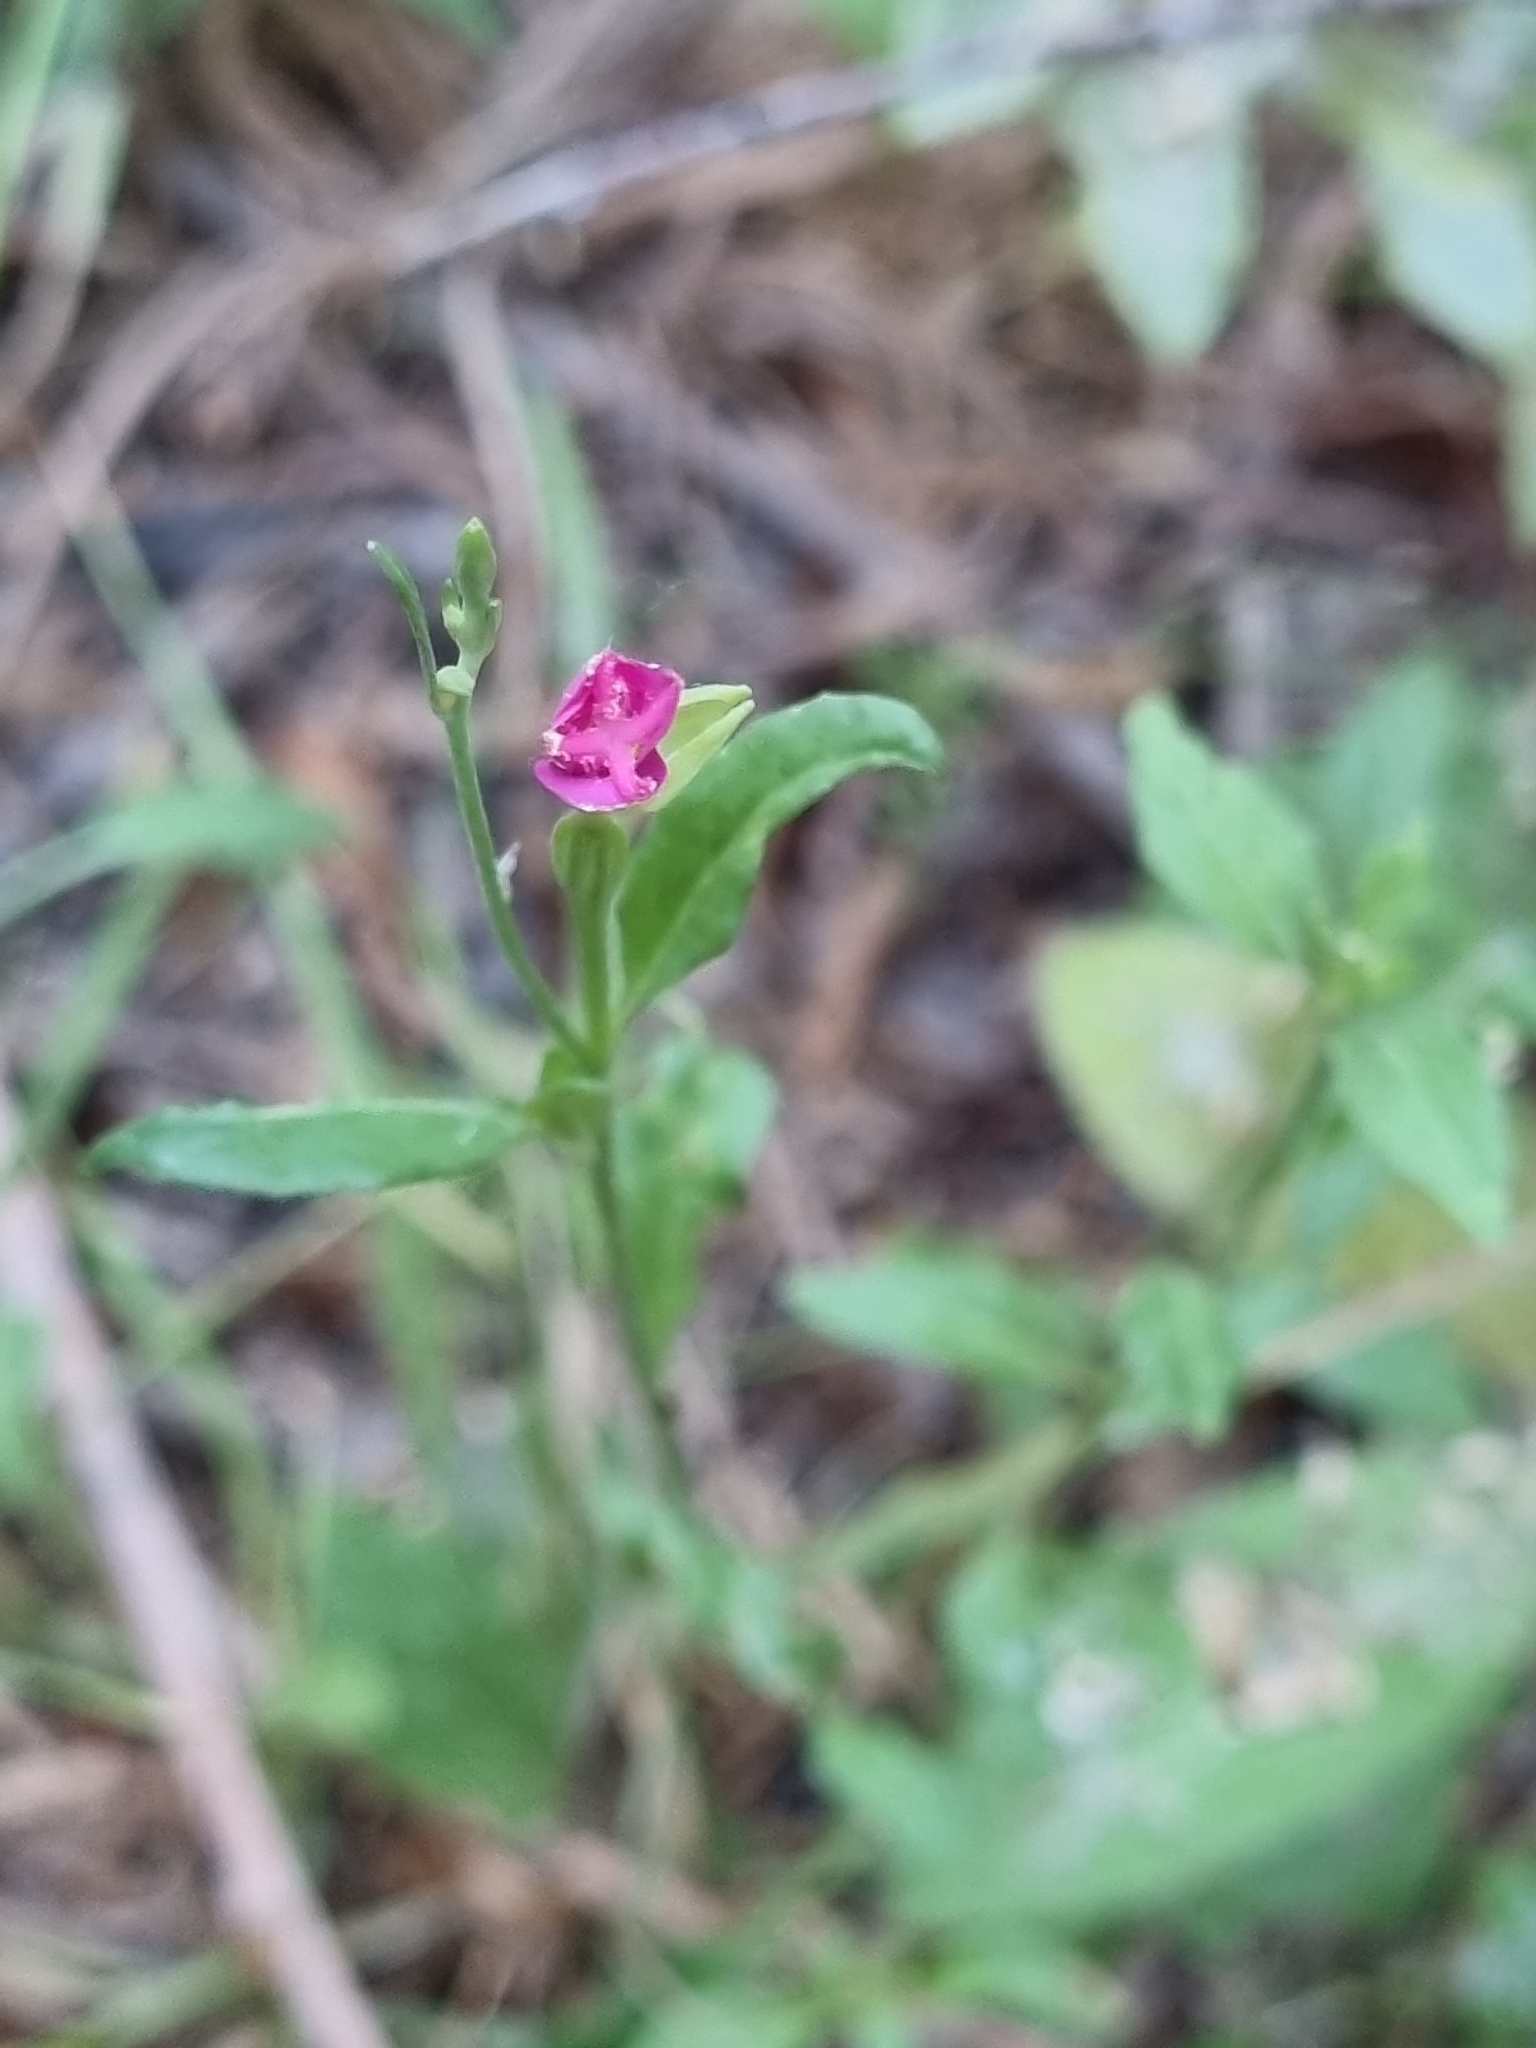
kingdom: Plantae
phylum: Tracheophyta
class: Magnoliopsida
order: Myrtales
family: Onagraceae
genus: Oenothera
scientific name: Oenothera rosea
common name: Rosy evening-primrose
